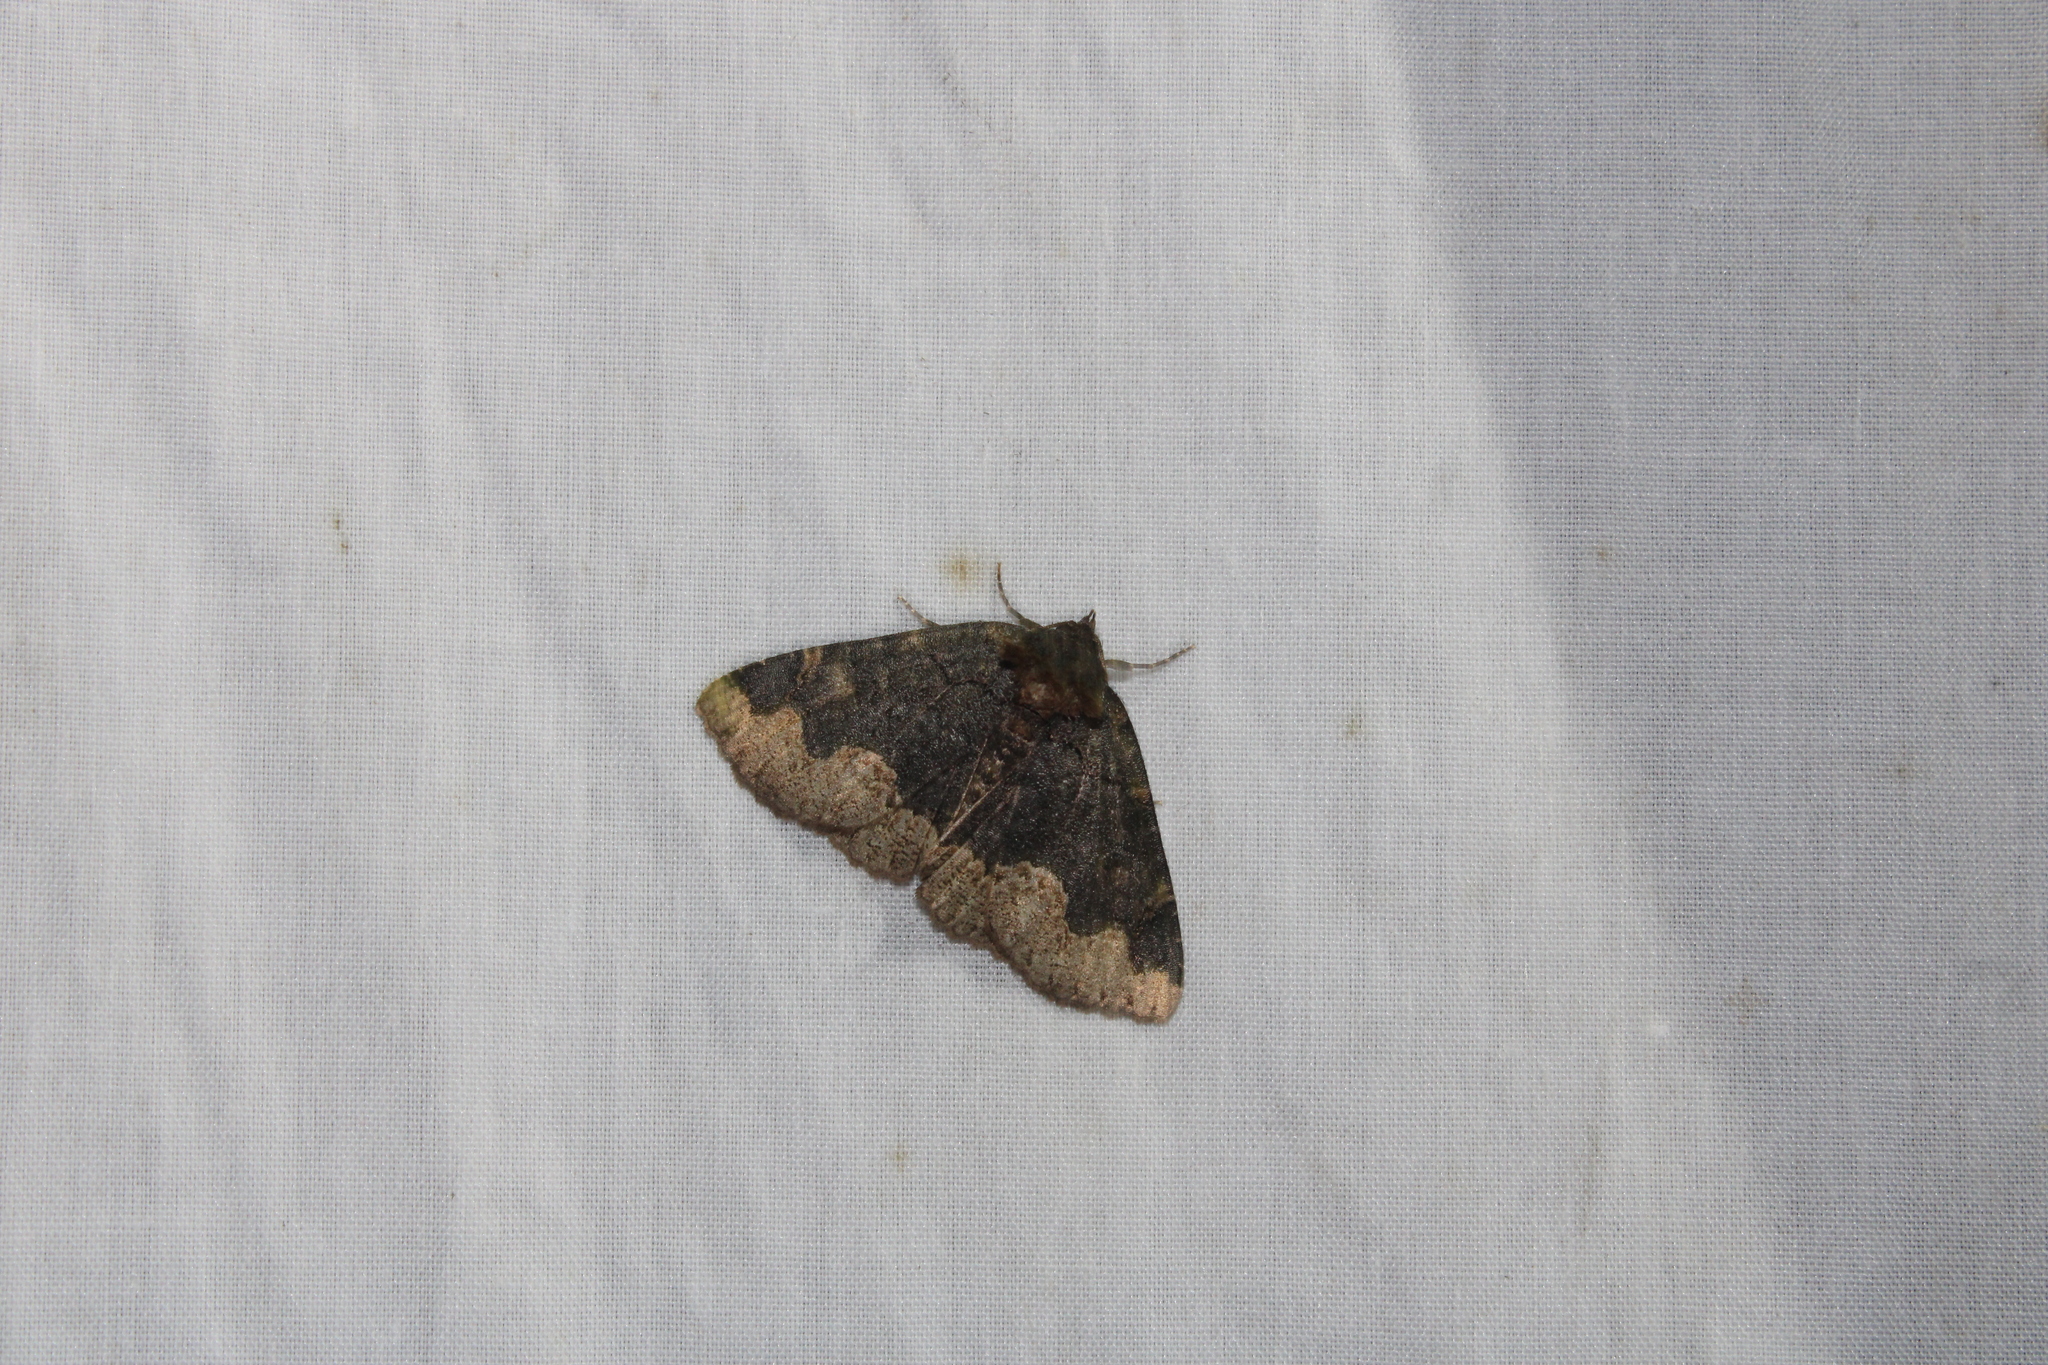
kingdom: Animalia
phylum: Arthropoda
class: Insecta
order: Lepidoptera
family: Erebidae
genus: Zale
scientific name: Zale horrida
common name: Horrid zale moth
